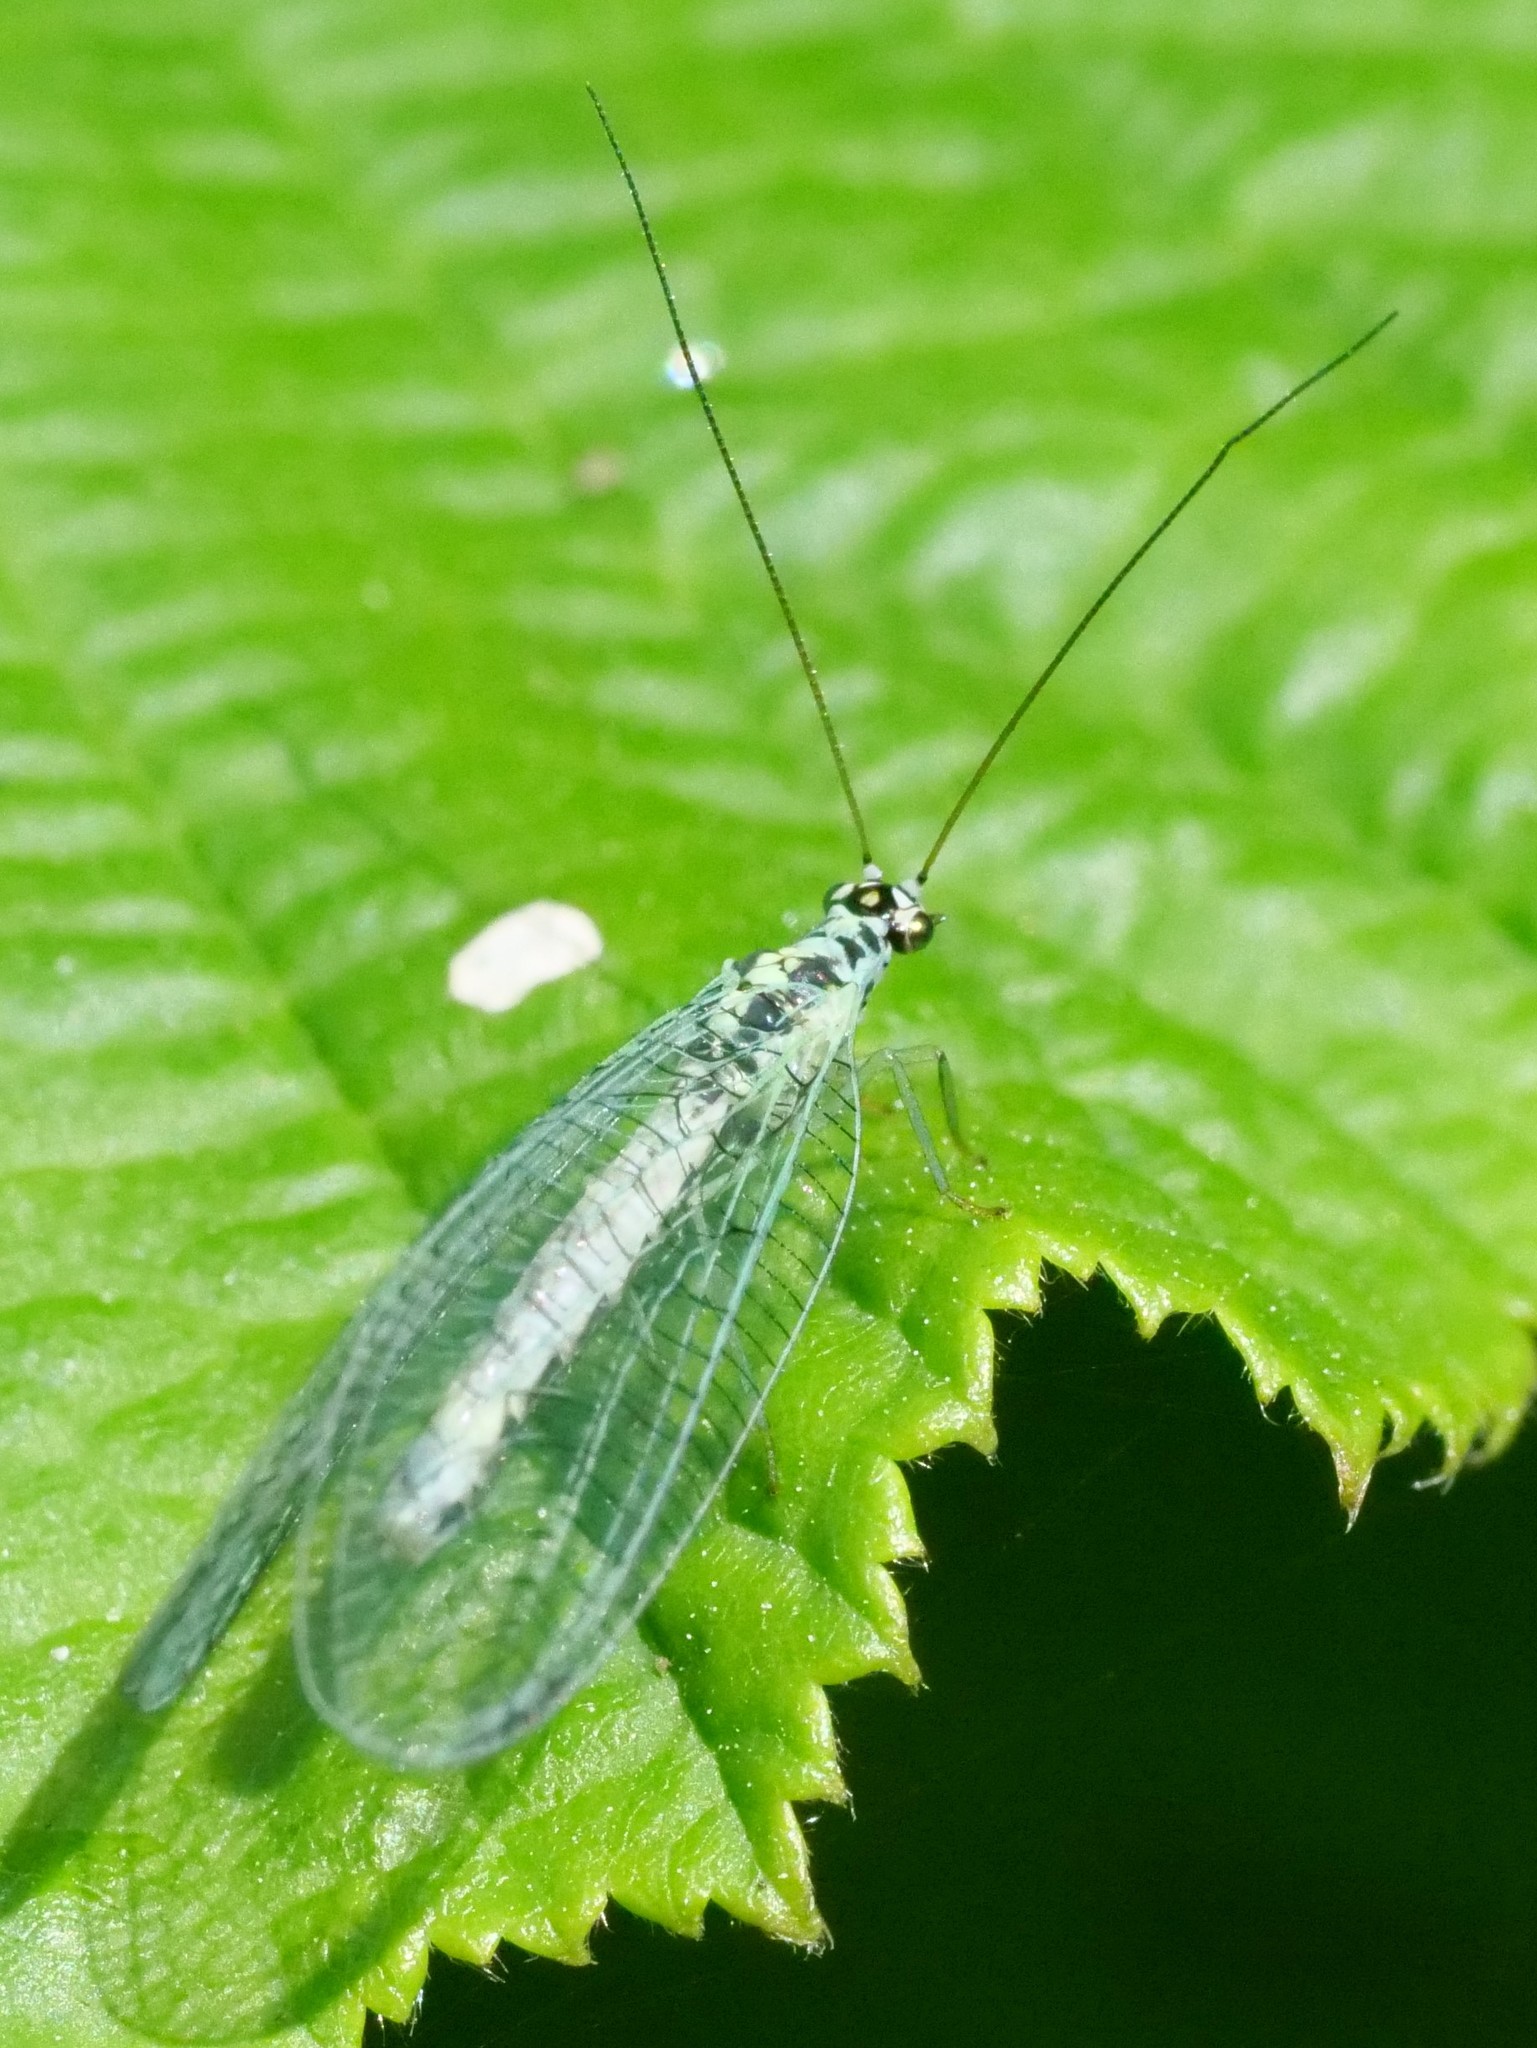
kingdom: Animalia
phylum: Arthropoda
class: Insecta
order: Neuroptera
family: Chrysopidae
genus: Chrysopa
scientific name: Chrysopa perla
